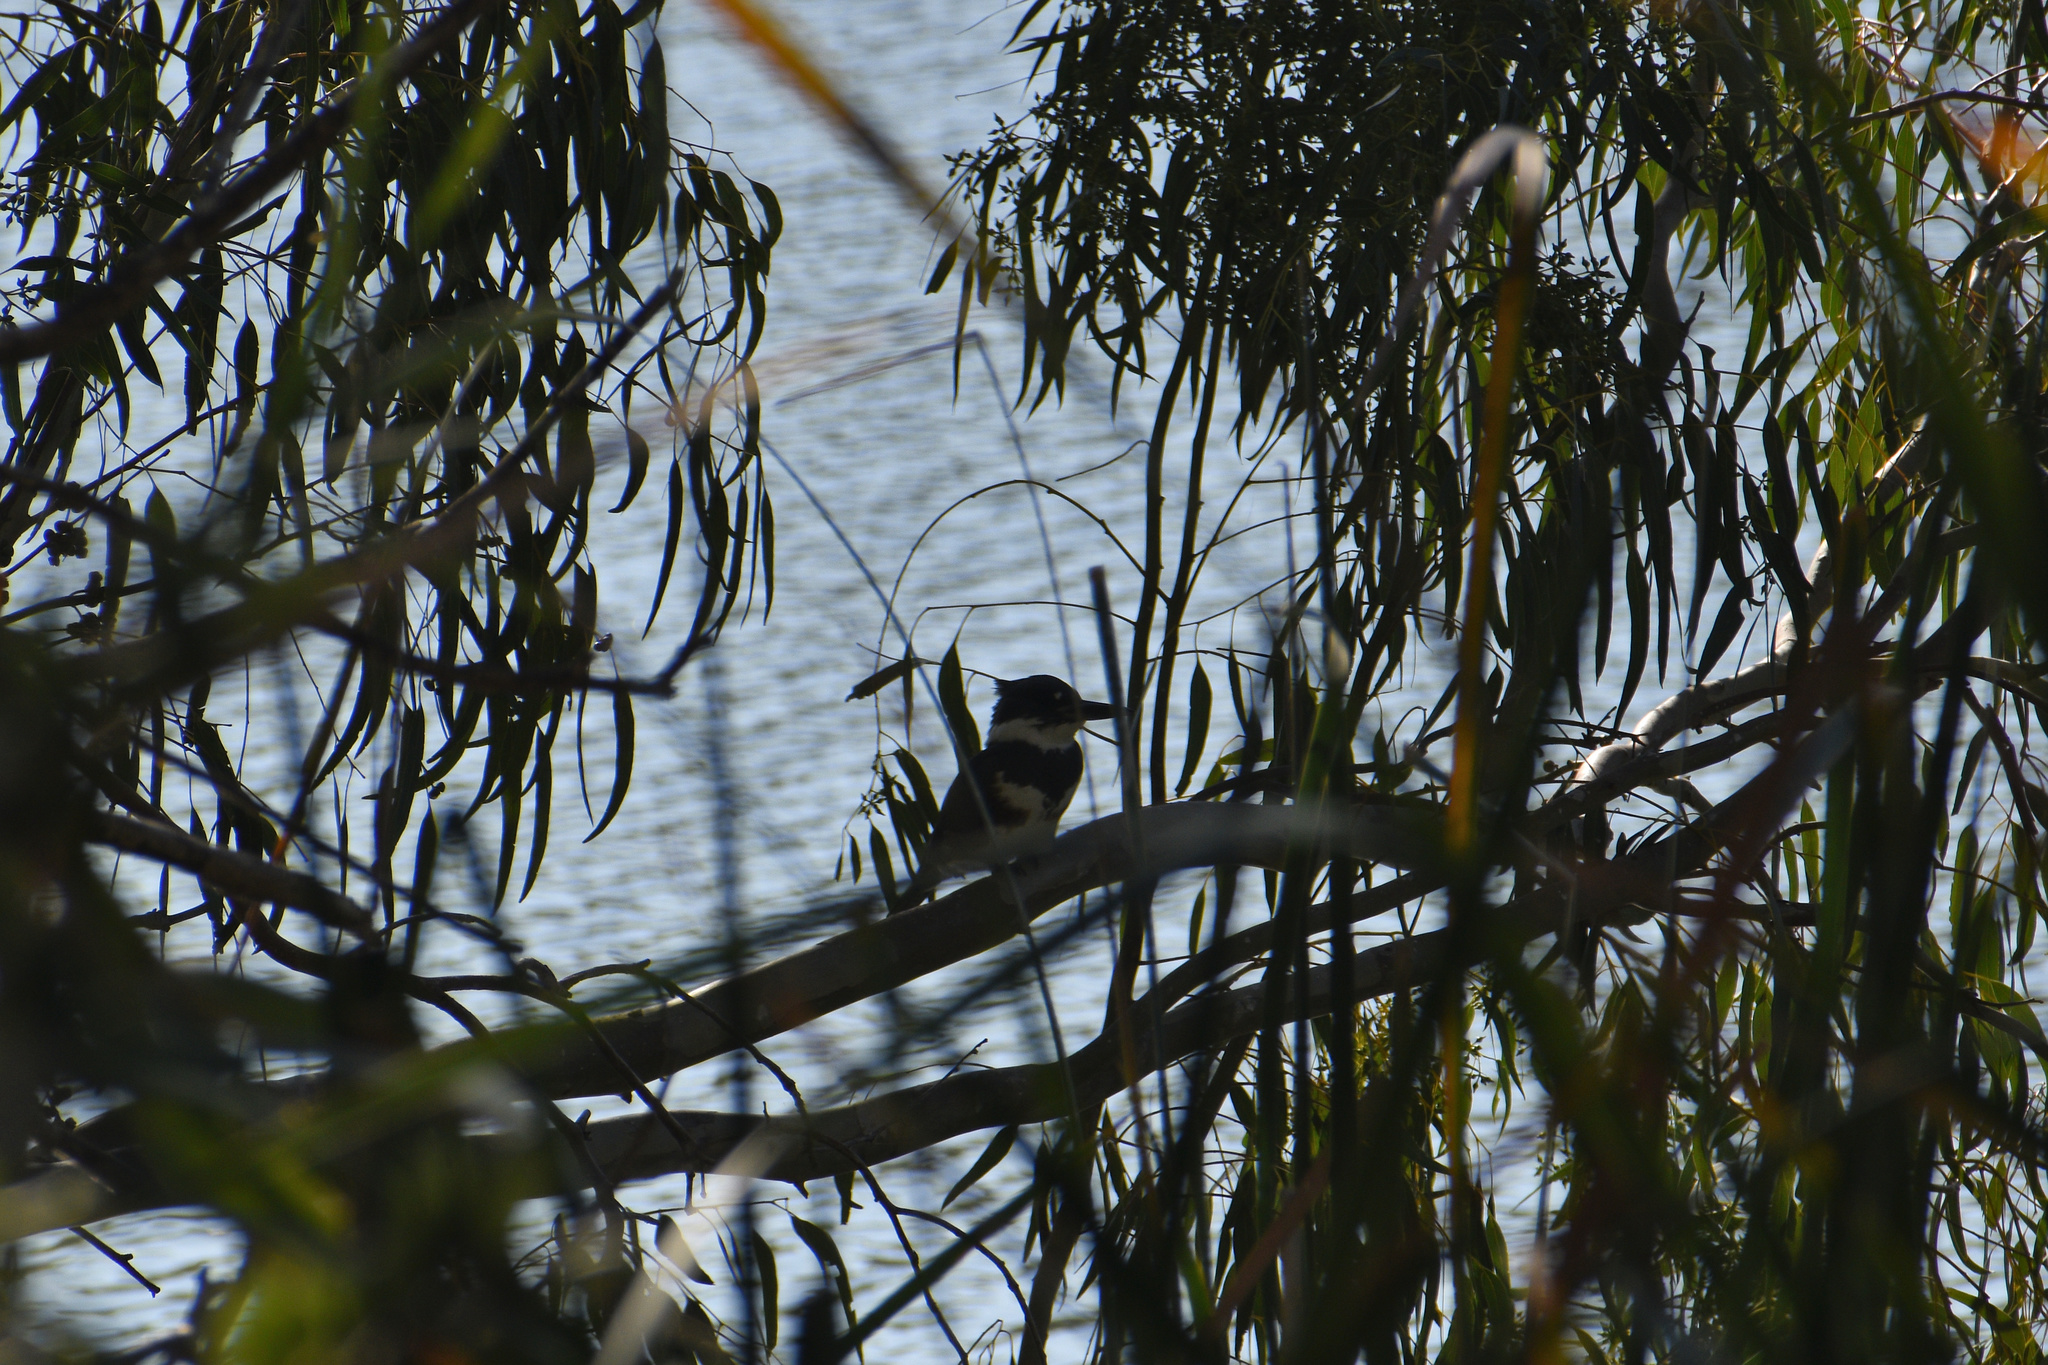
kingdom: Animalia
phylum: Chordata
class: Aves
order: Coraciiformes
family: Alcedinidae
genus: Megaceryle
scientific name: Megaceryle alcyon
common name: Belted kingfisher
